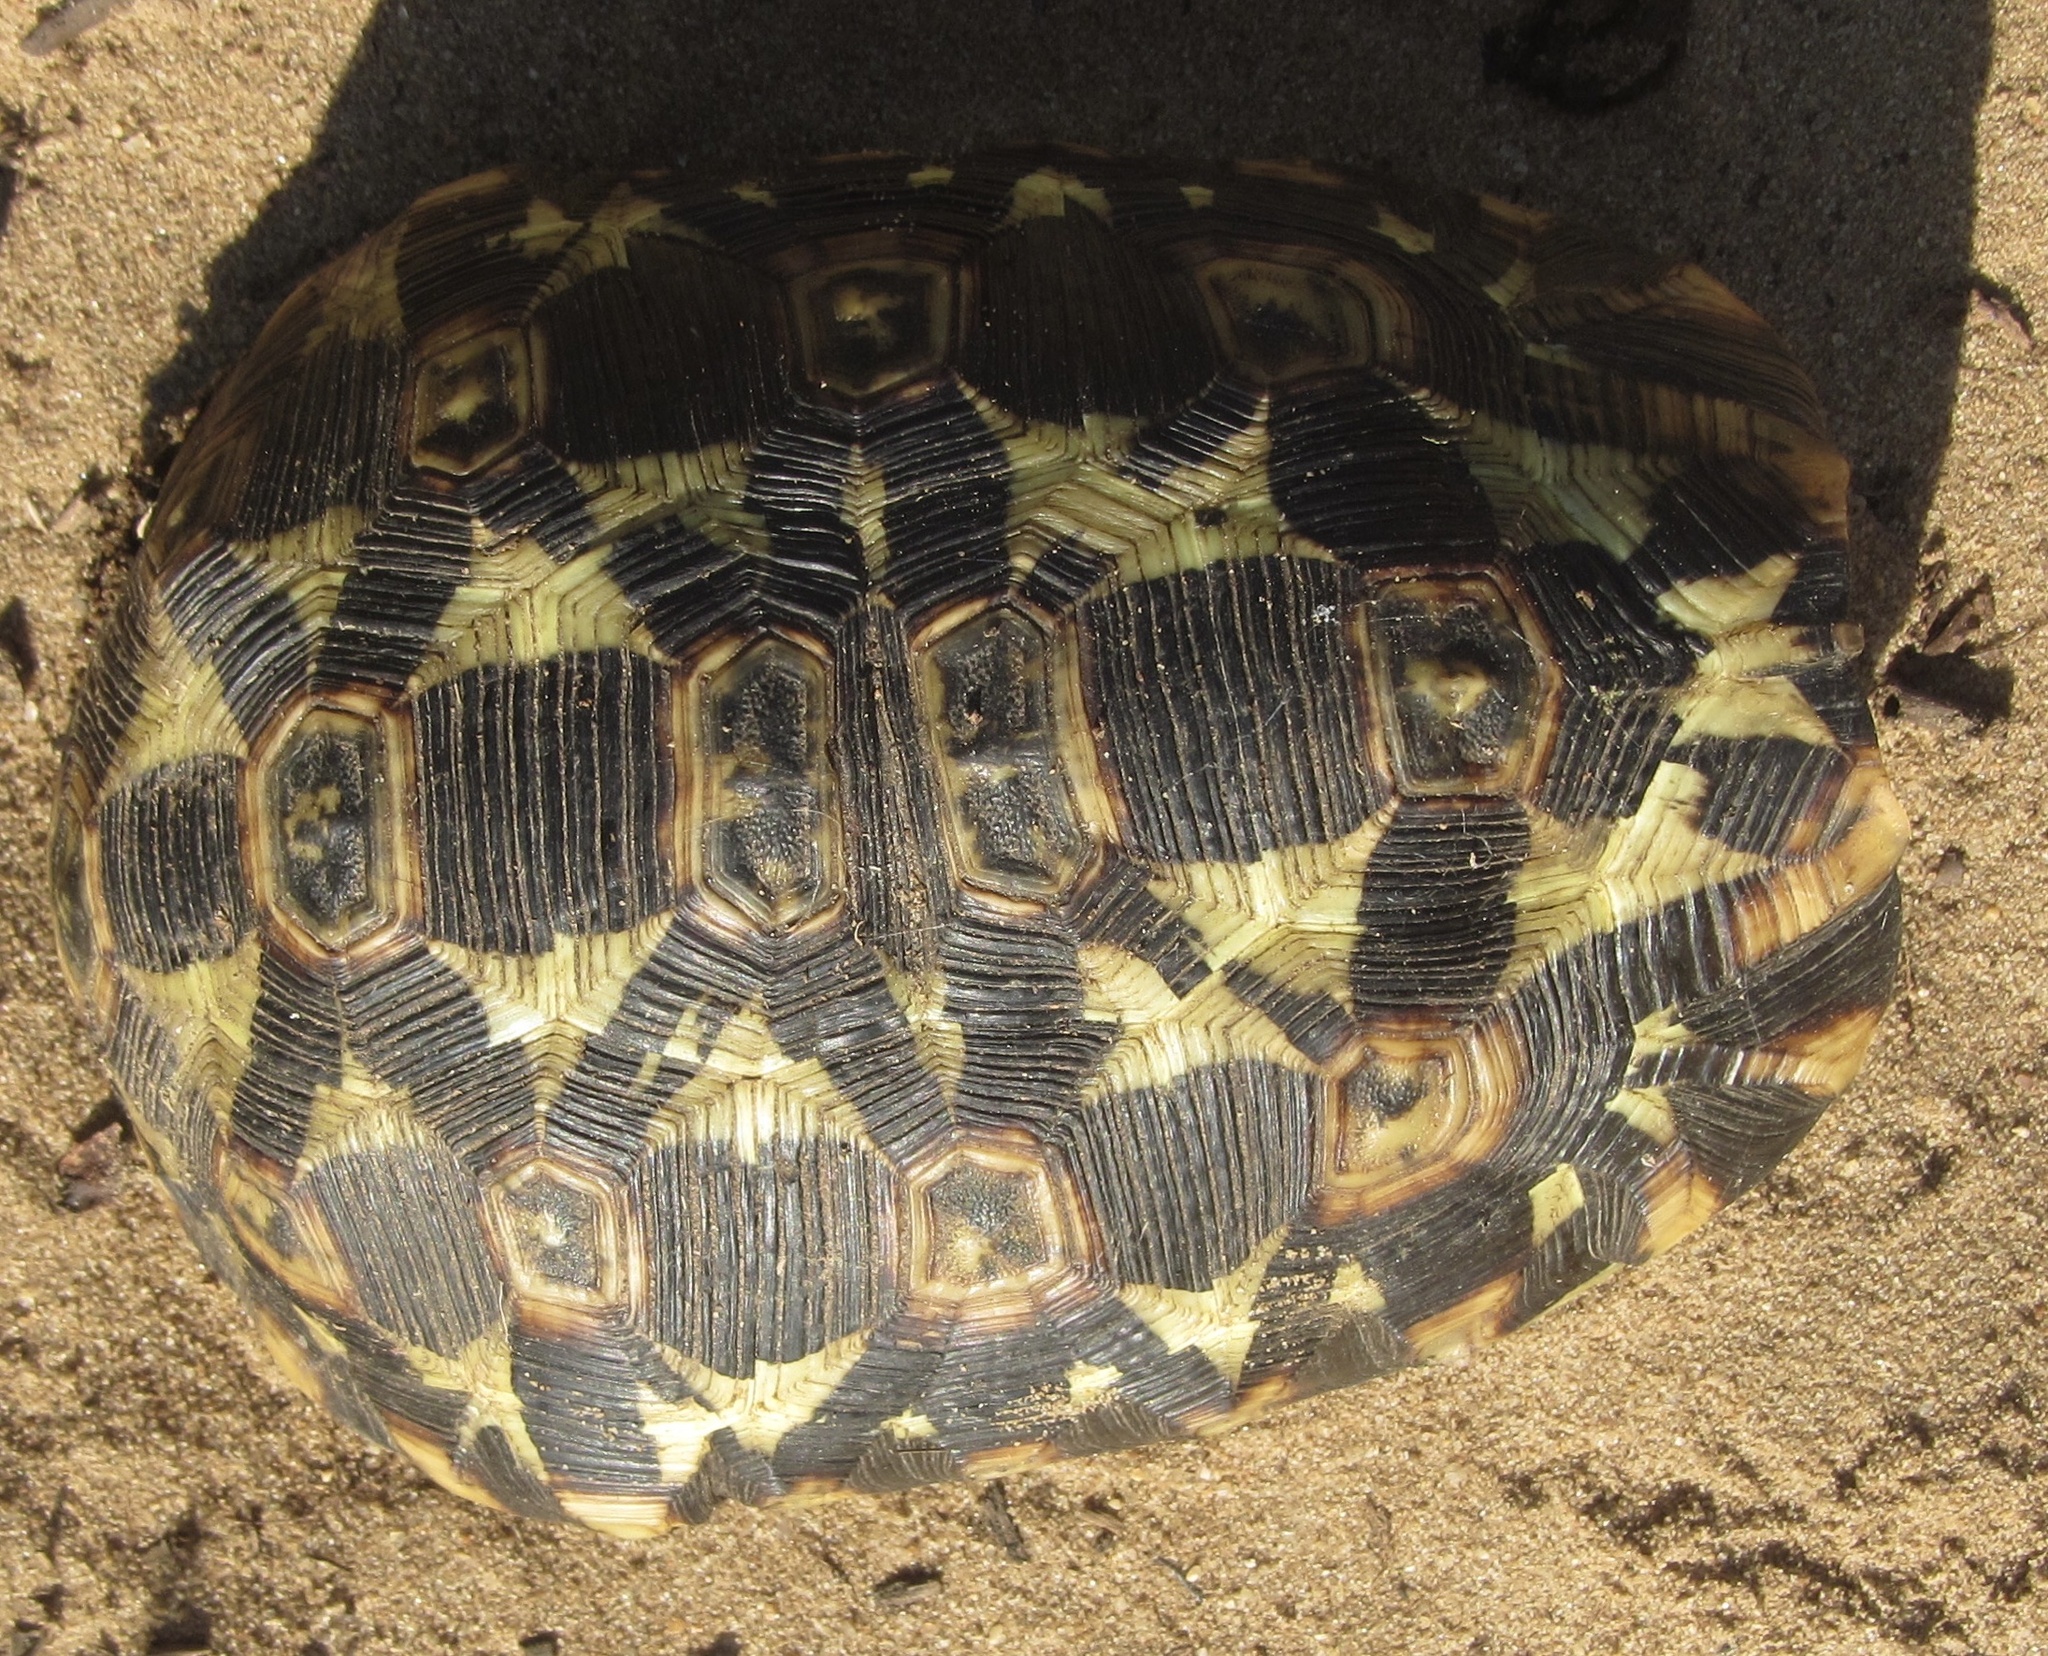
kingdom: Animalia
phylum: Chordata
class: Testudines
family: Testudinidae
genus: Kinixys
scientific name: Kinixys zombensis
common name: Southeastern hinge-back tortoise
